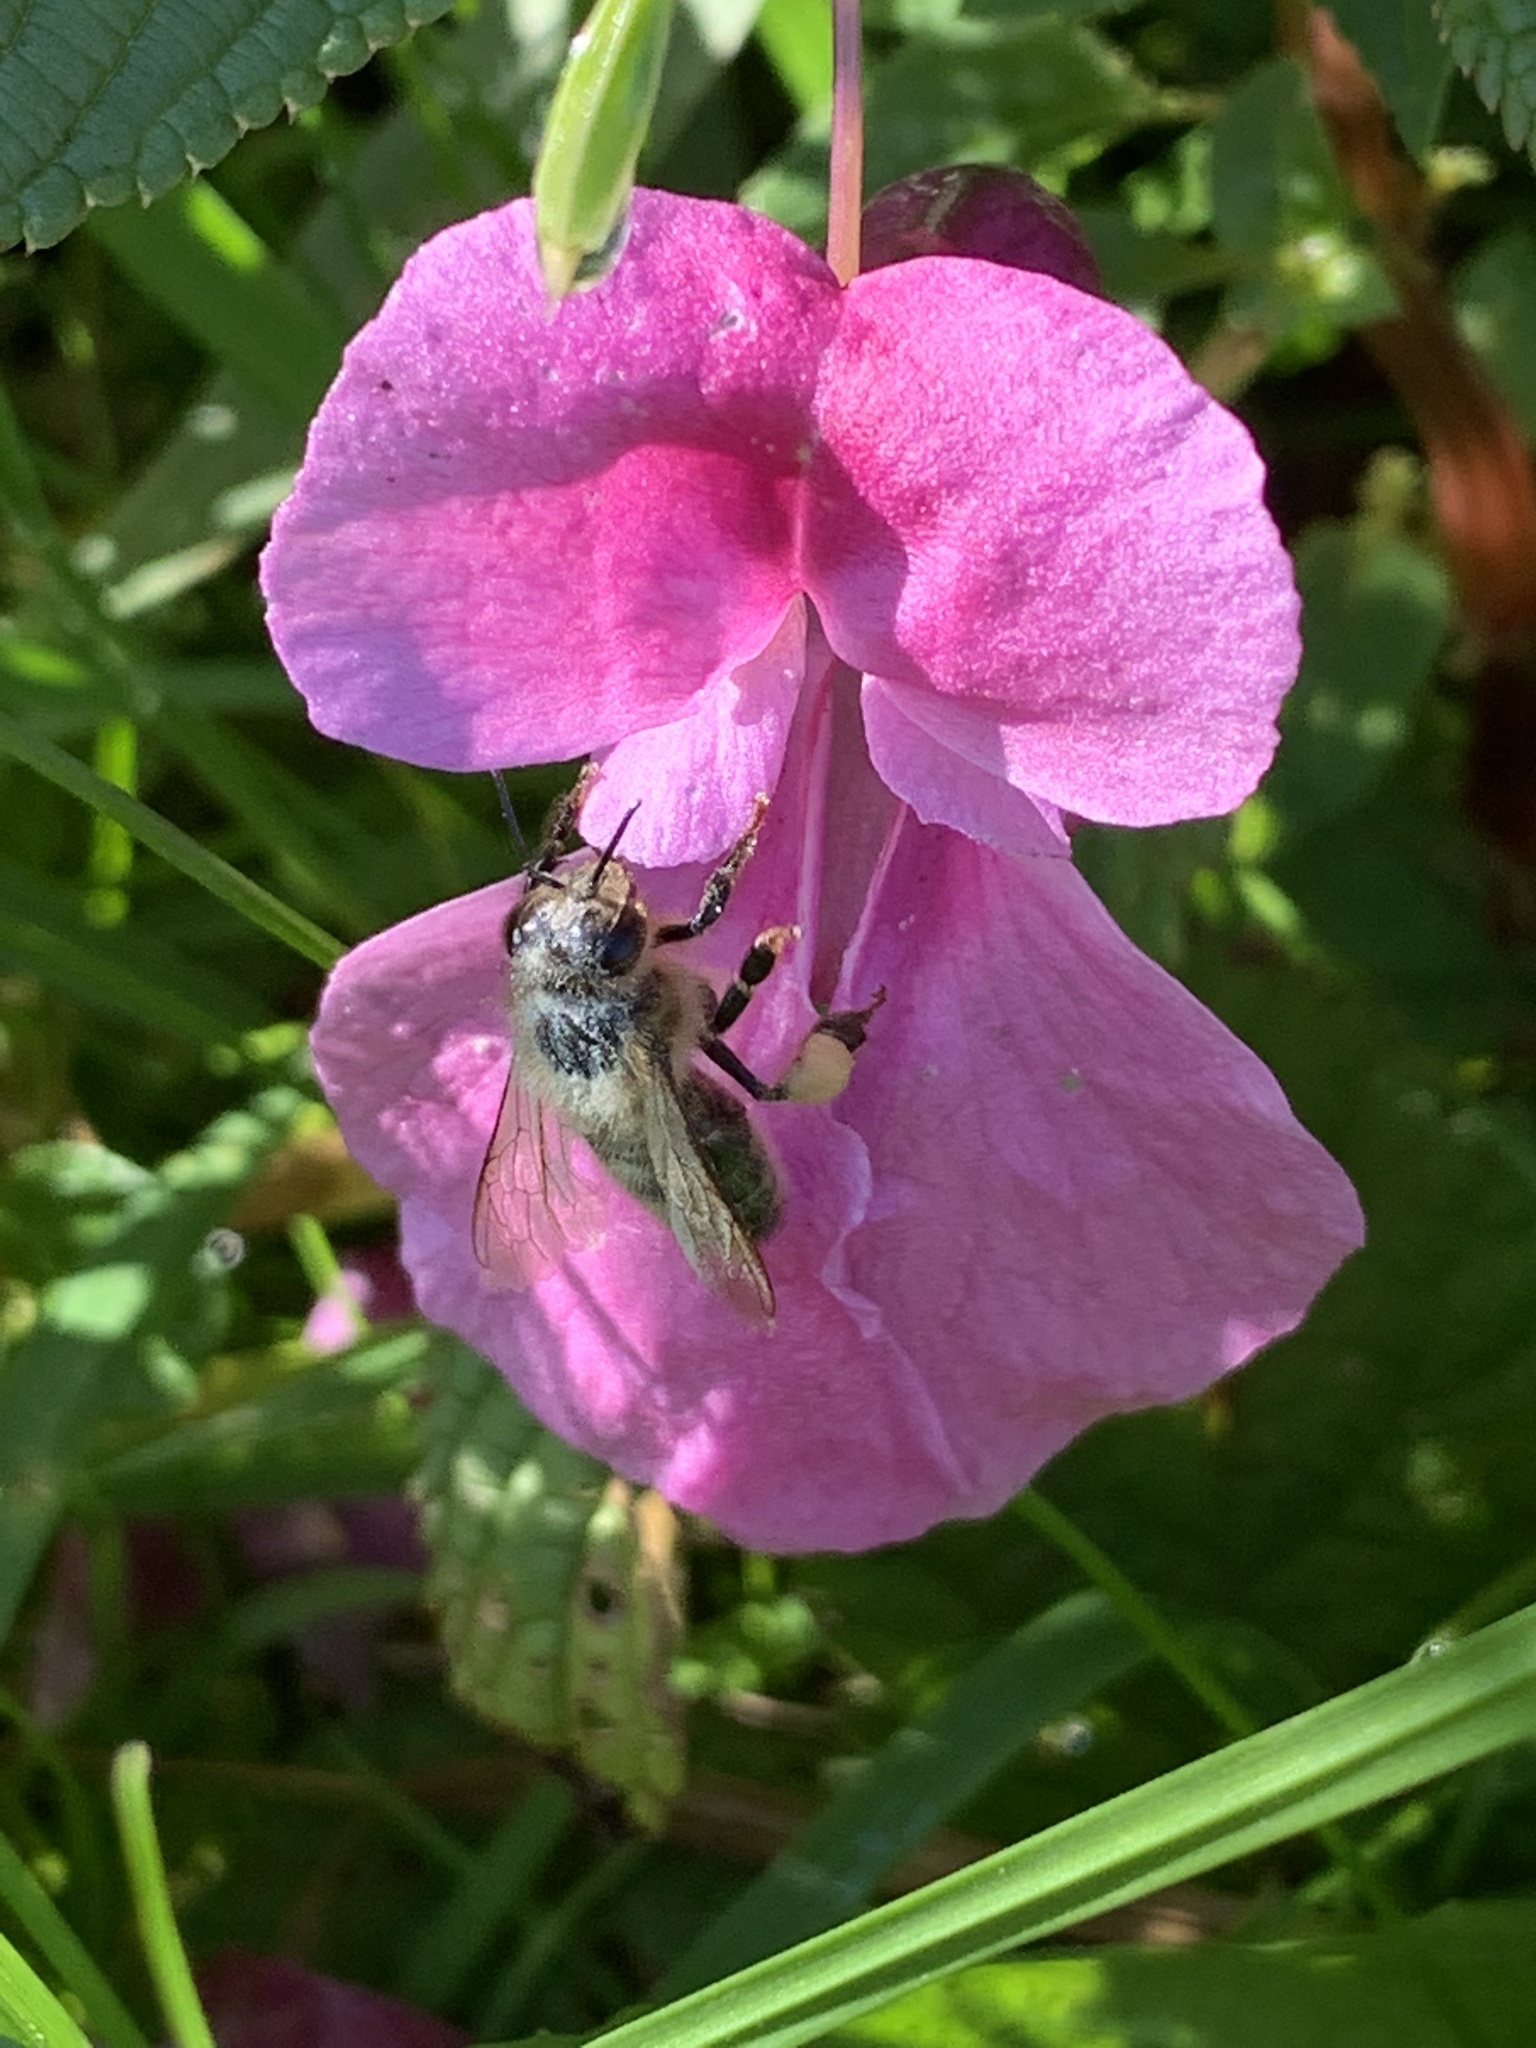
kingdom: Animalia
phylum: Arthropoda
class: Insecta
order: Hymenoptera
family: Apidae
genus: Apis
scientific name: Apis mellifera
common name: Honey bee
